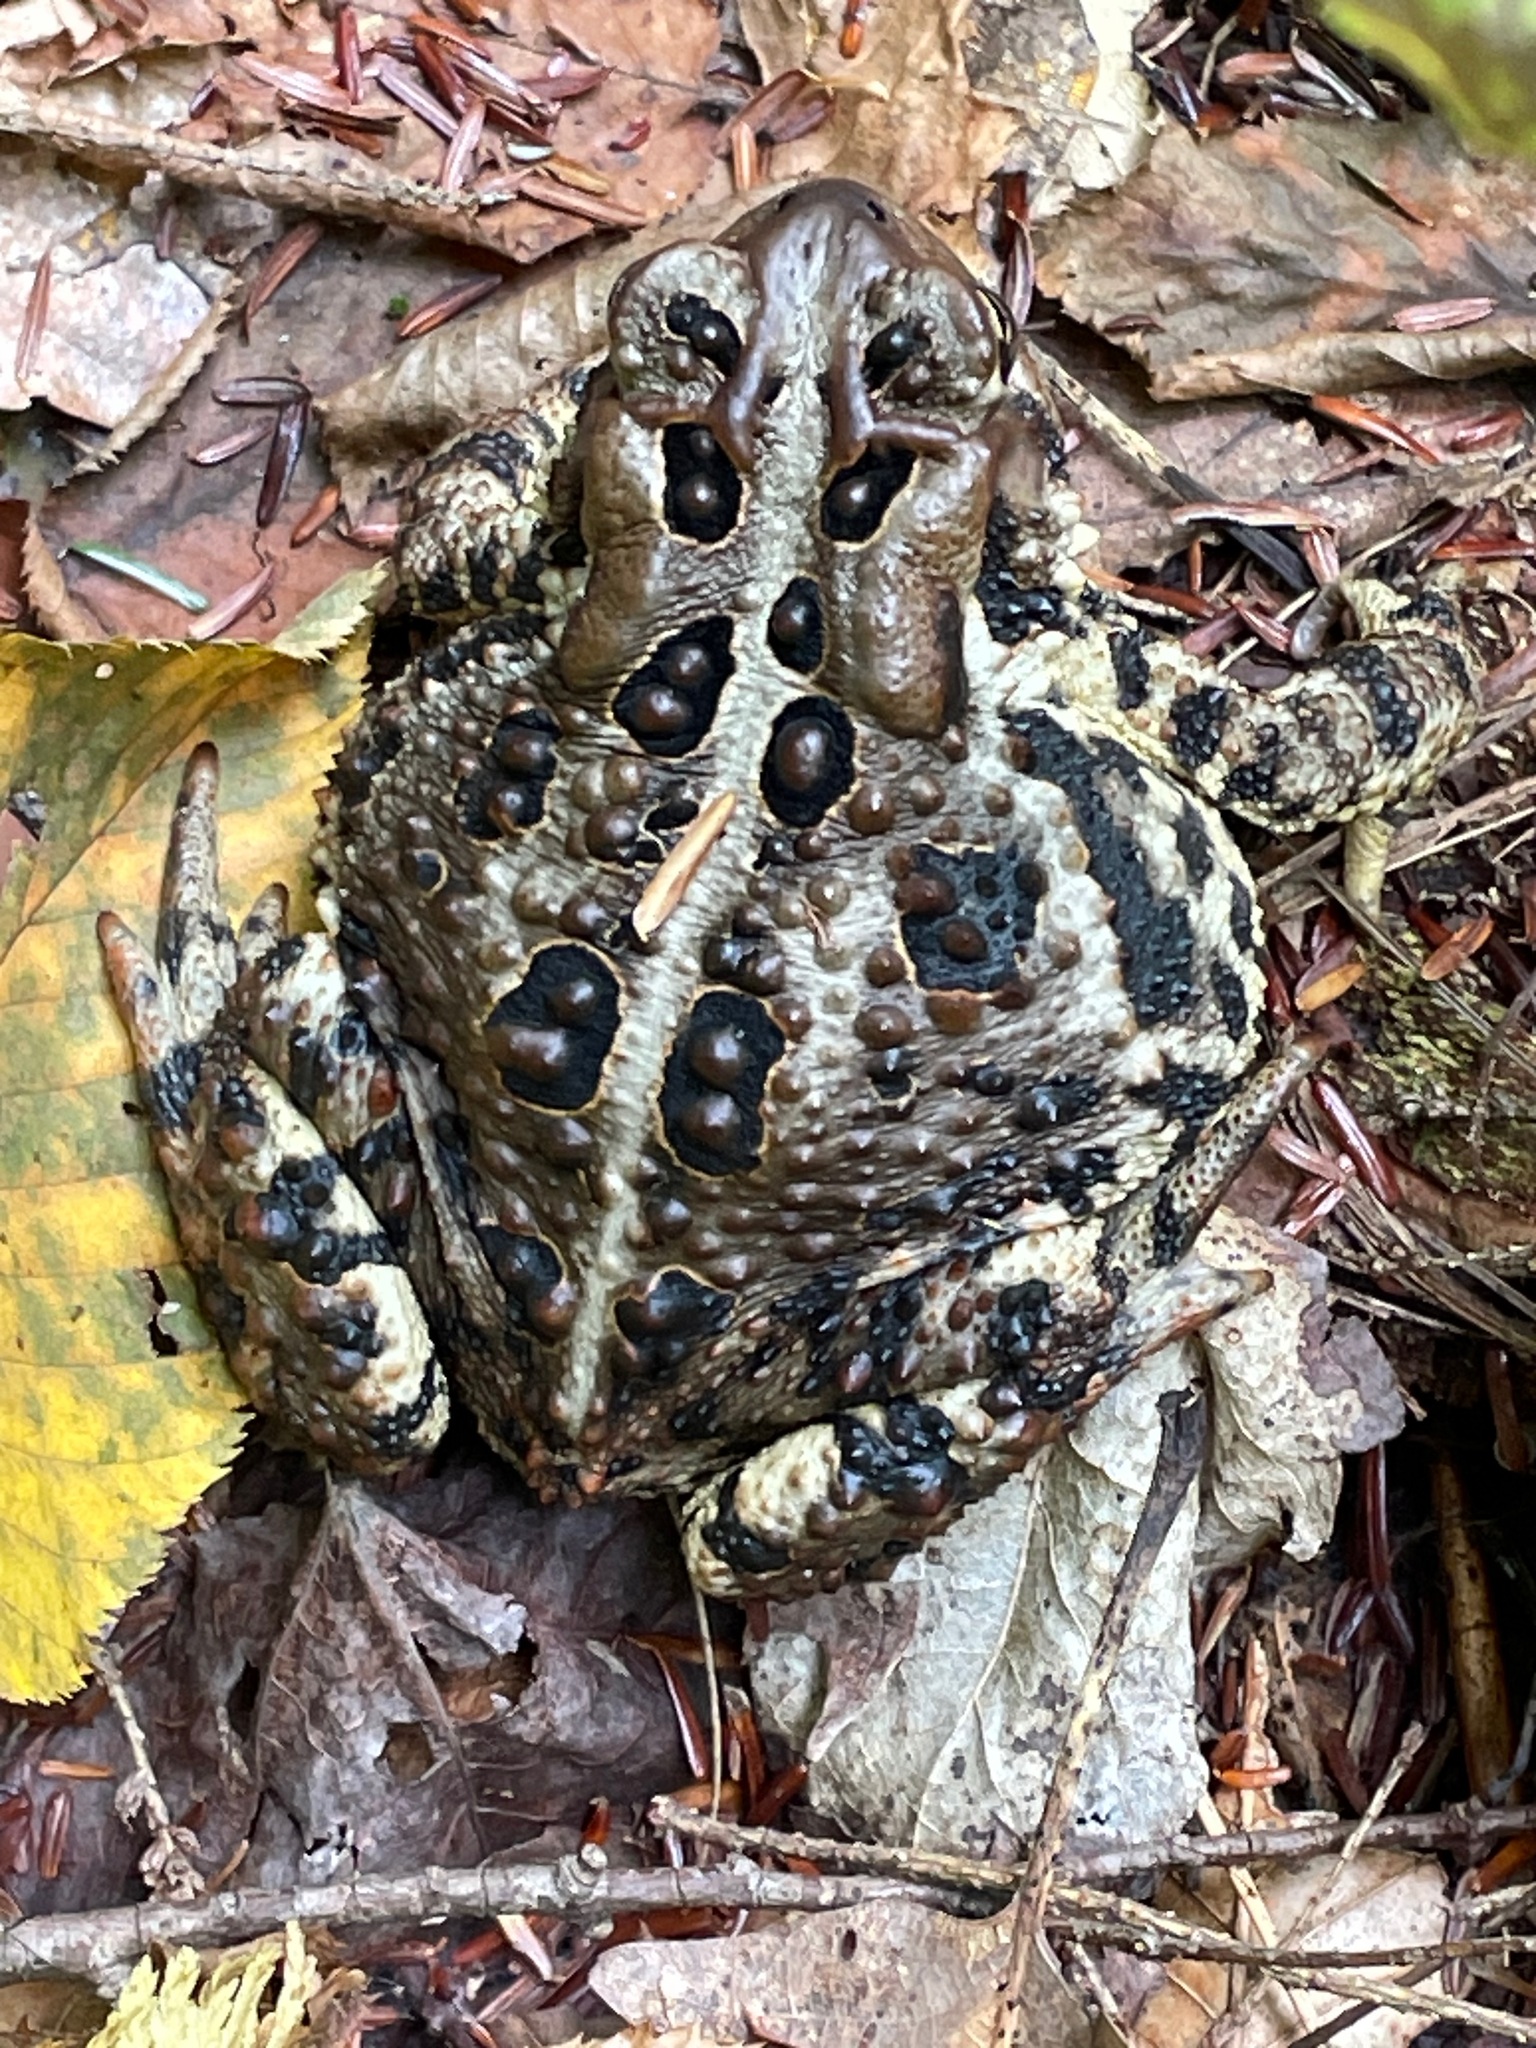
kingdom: Animalia
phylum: Chordata
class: Amphibia
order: Anura
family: Bufonidae
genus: Anaxyrus
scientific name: Anaxyrus americanus
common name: American toad
